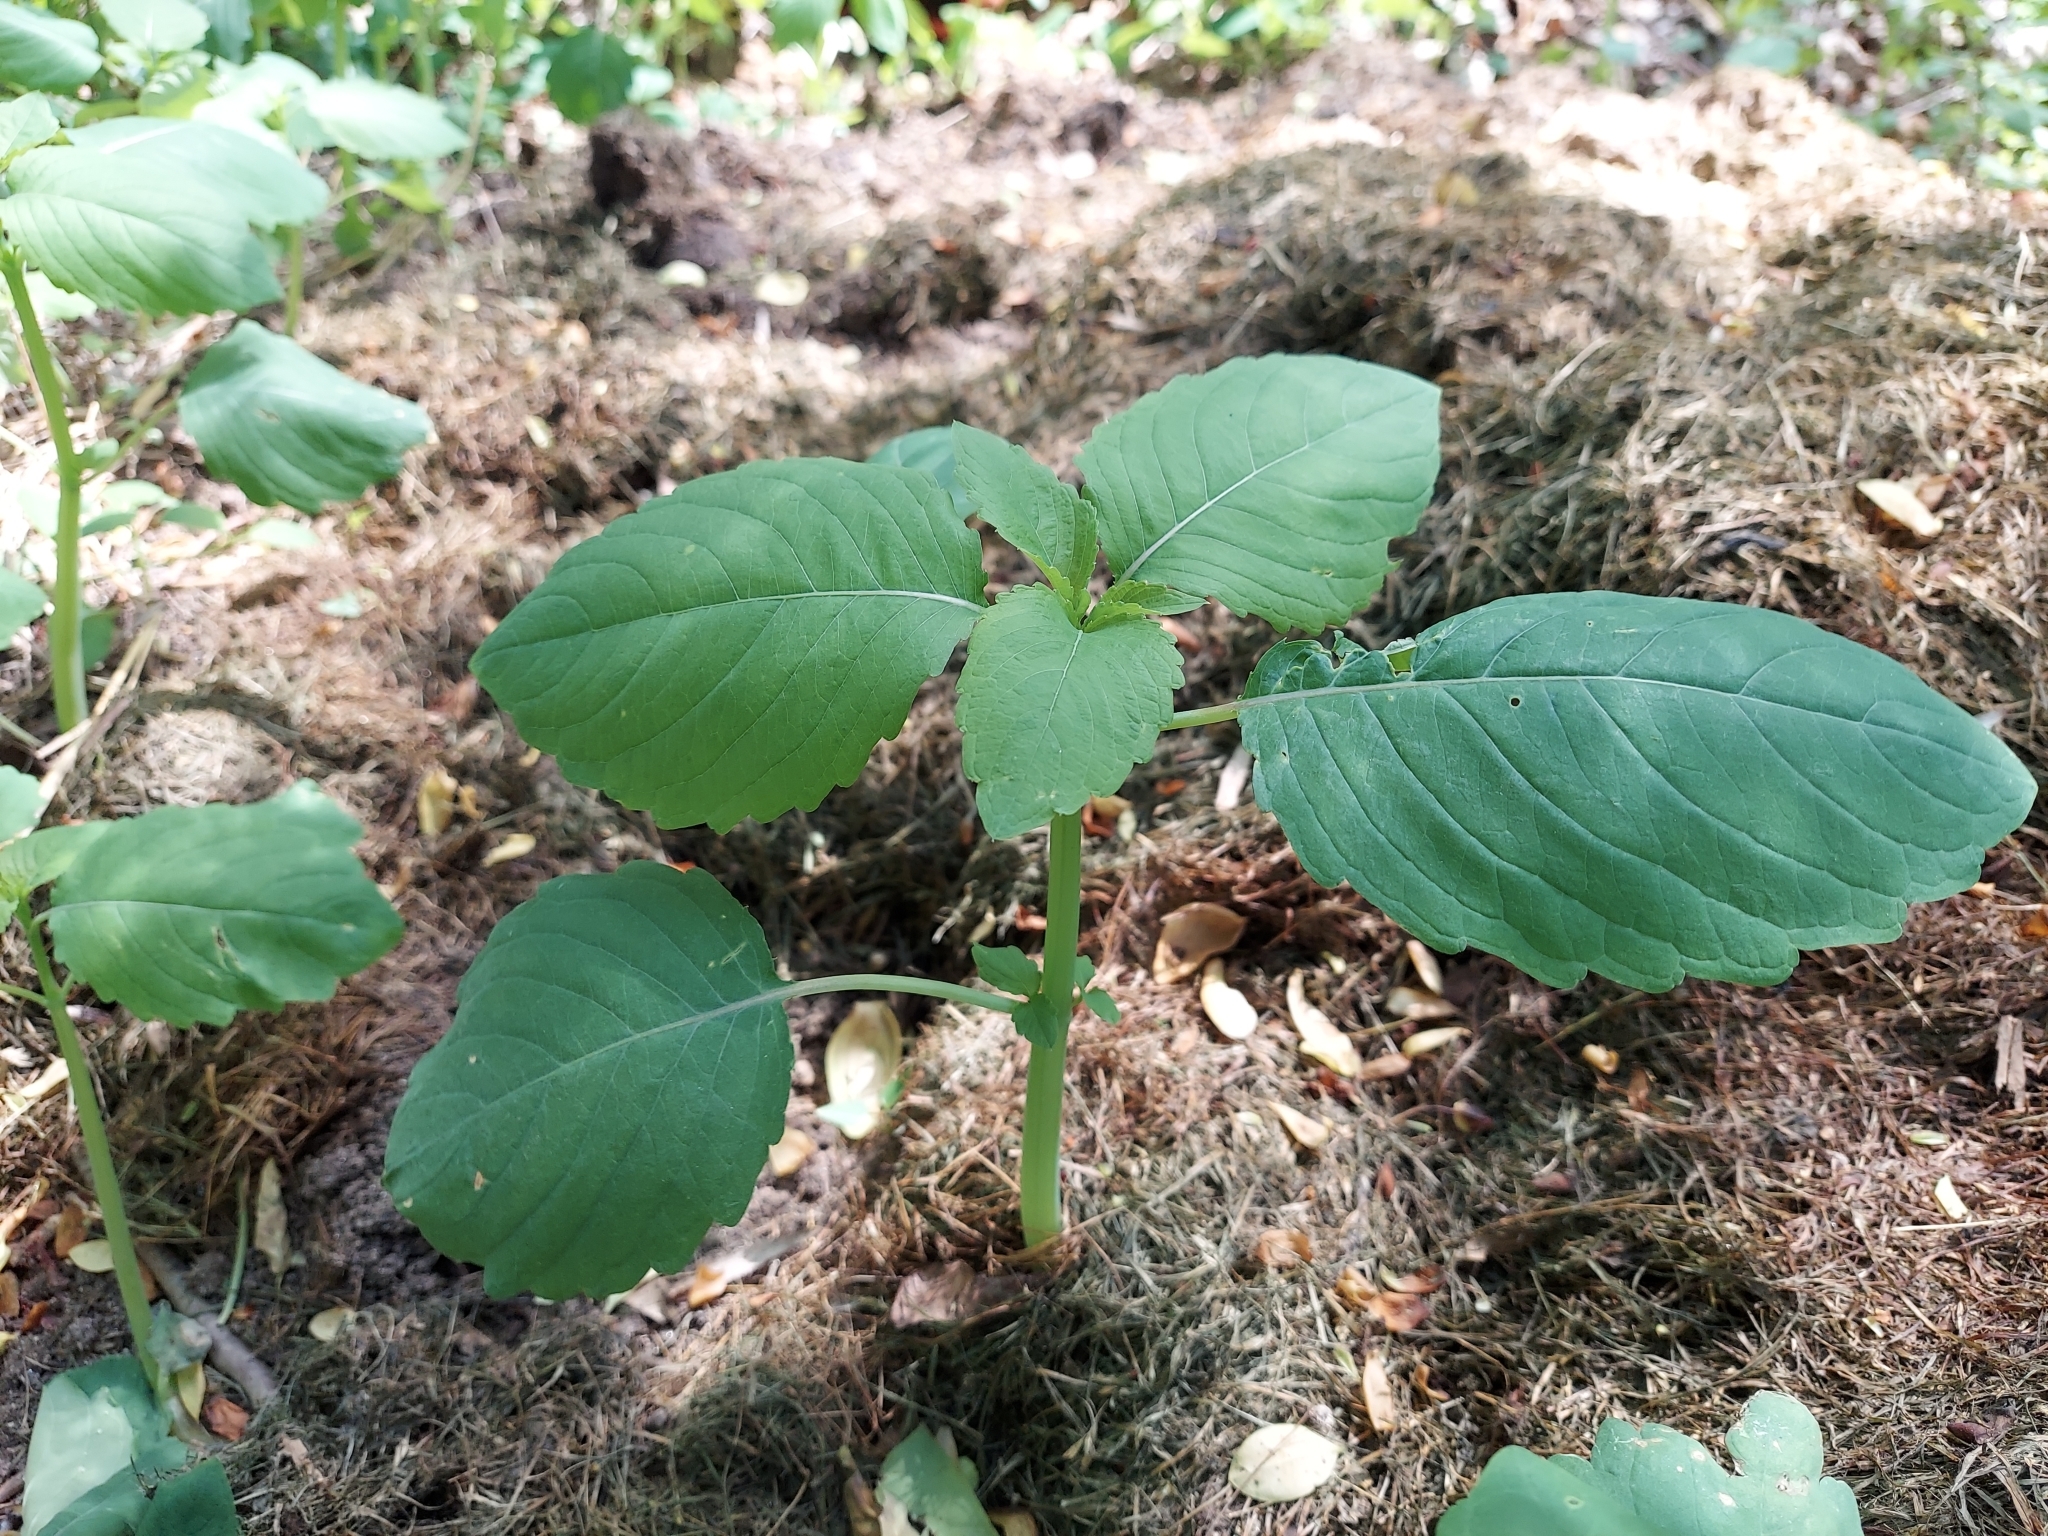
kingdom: Plantae
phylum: Tracheophyta
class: Magnoliopsida
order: Ericales
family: Balsaminaceae
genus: Impatiens
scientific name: Impatiens pallida
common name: Pale snapweed
